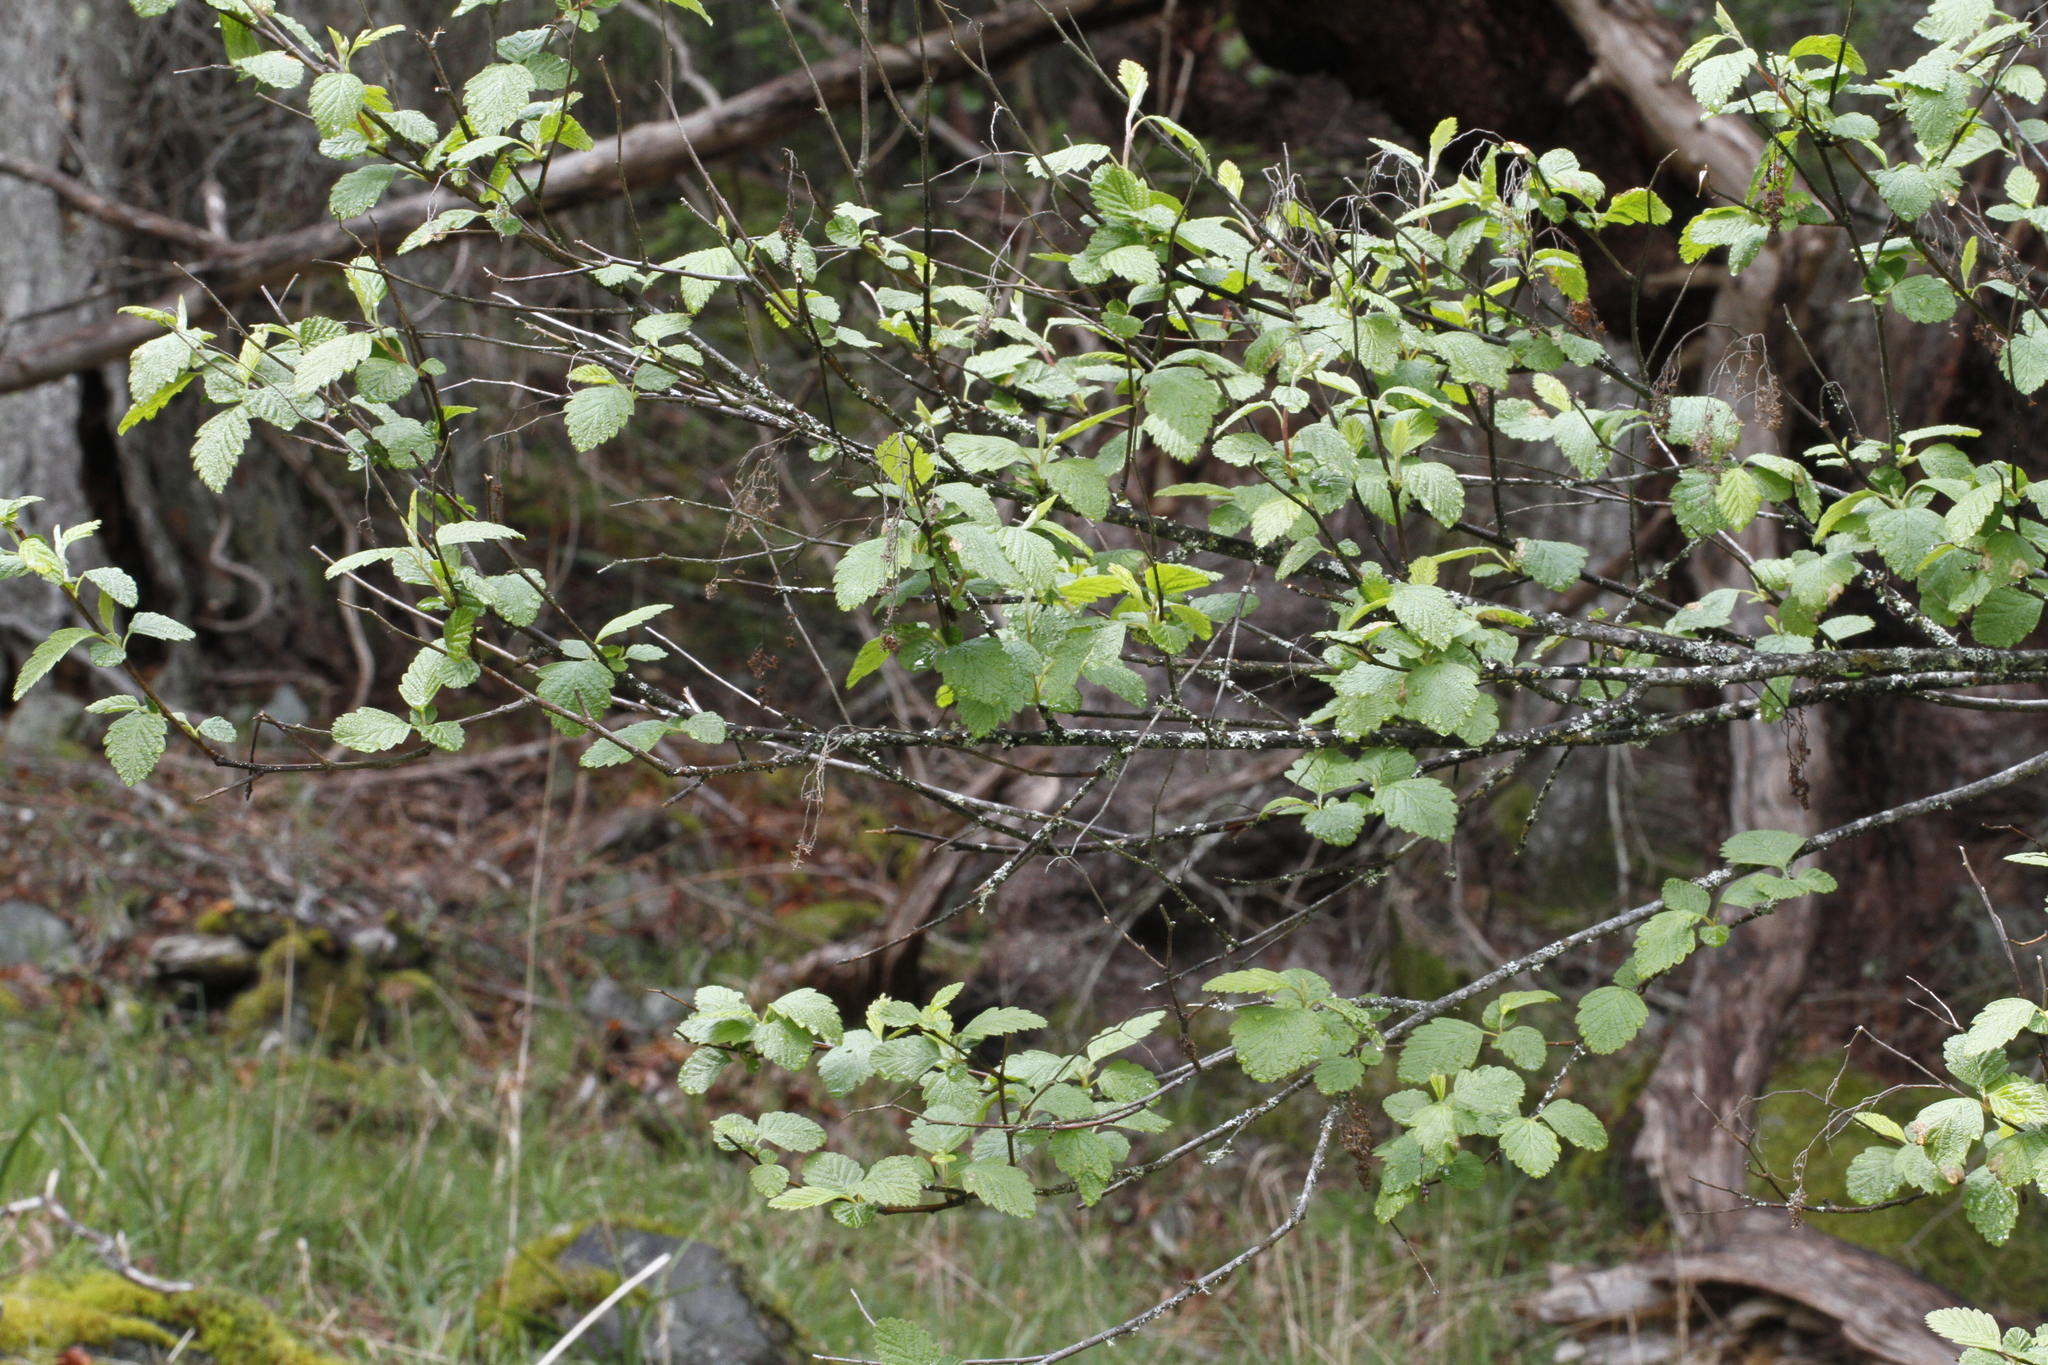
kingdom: Plantae
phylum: Tracheophyta
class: Magnoliopsida
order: Rosales
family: Rosaceae
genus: Holodiscus
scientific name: Holodiscus discolor
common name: Oceanspray
